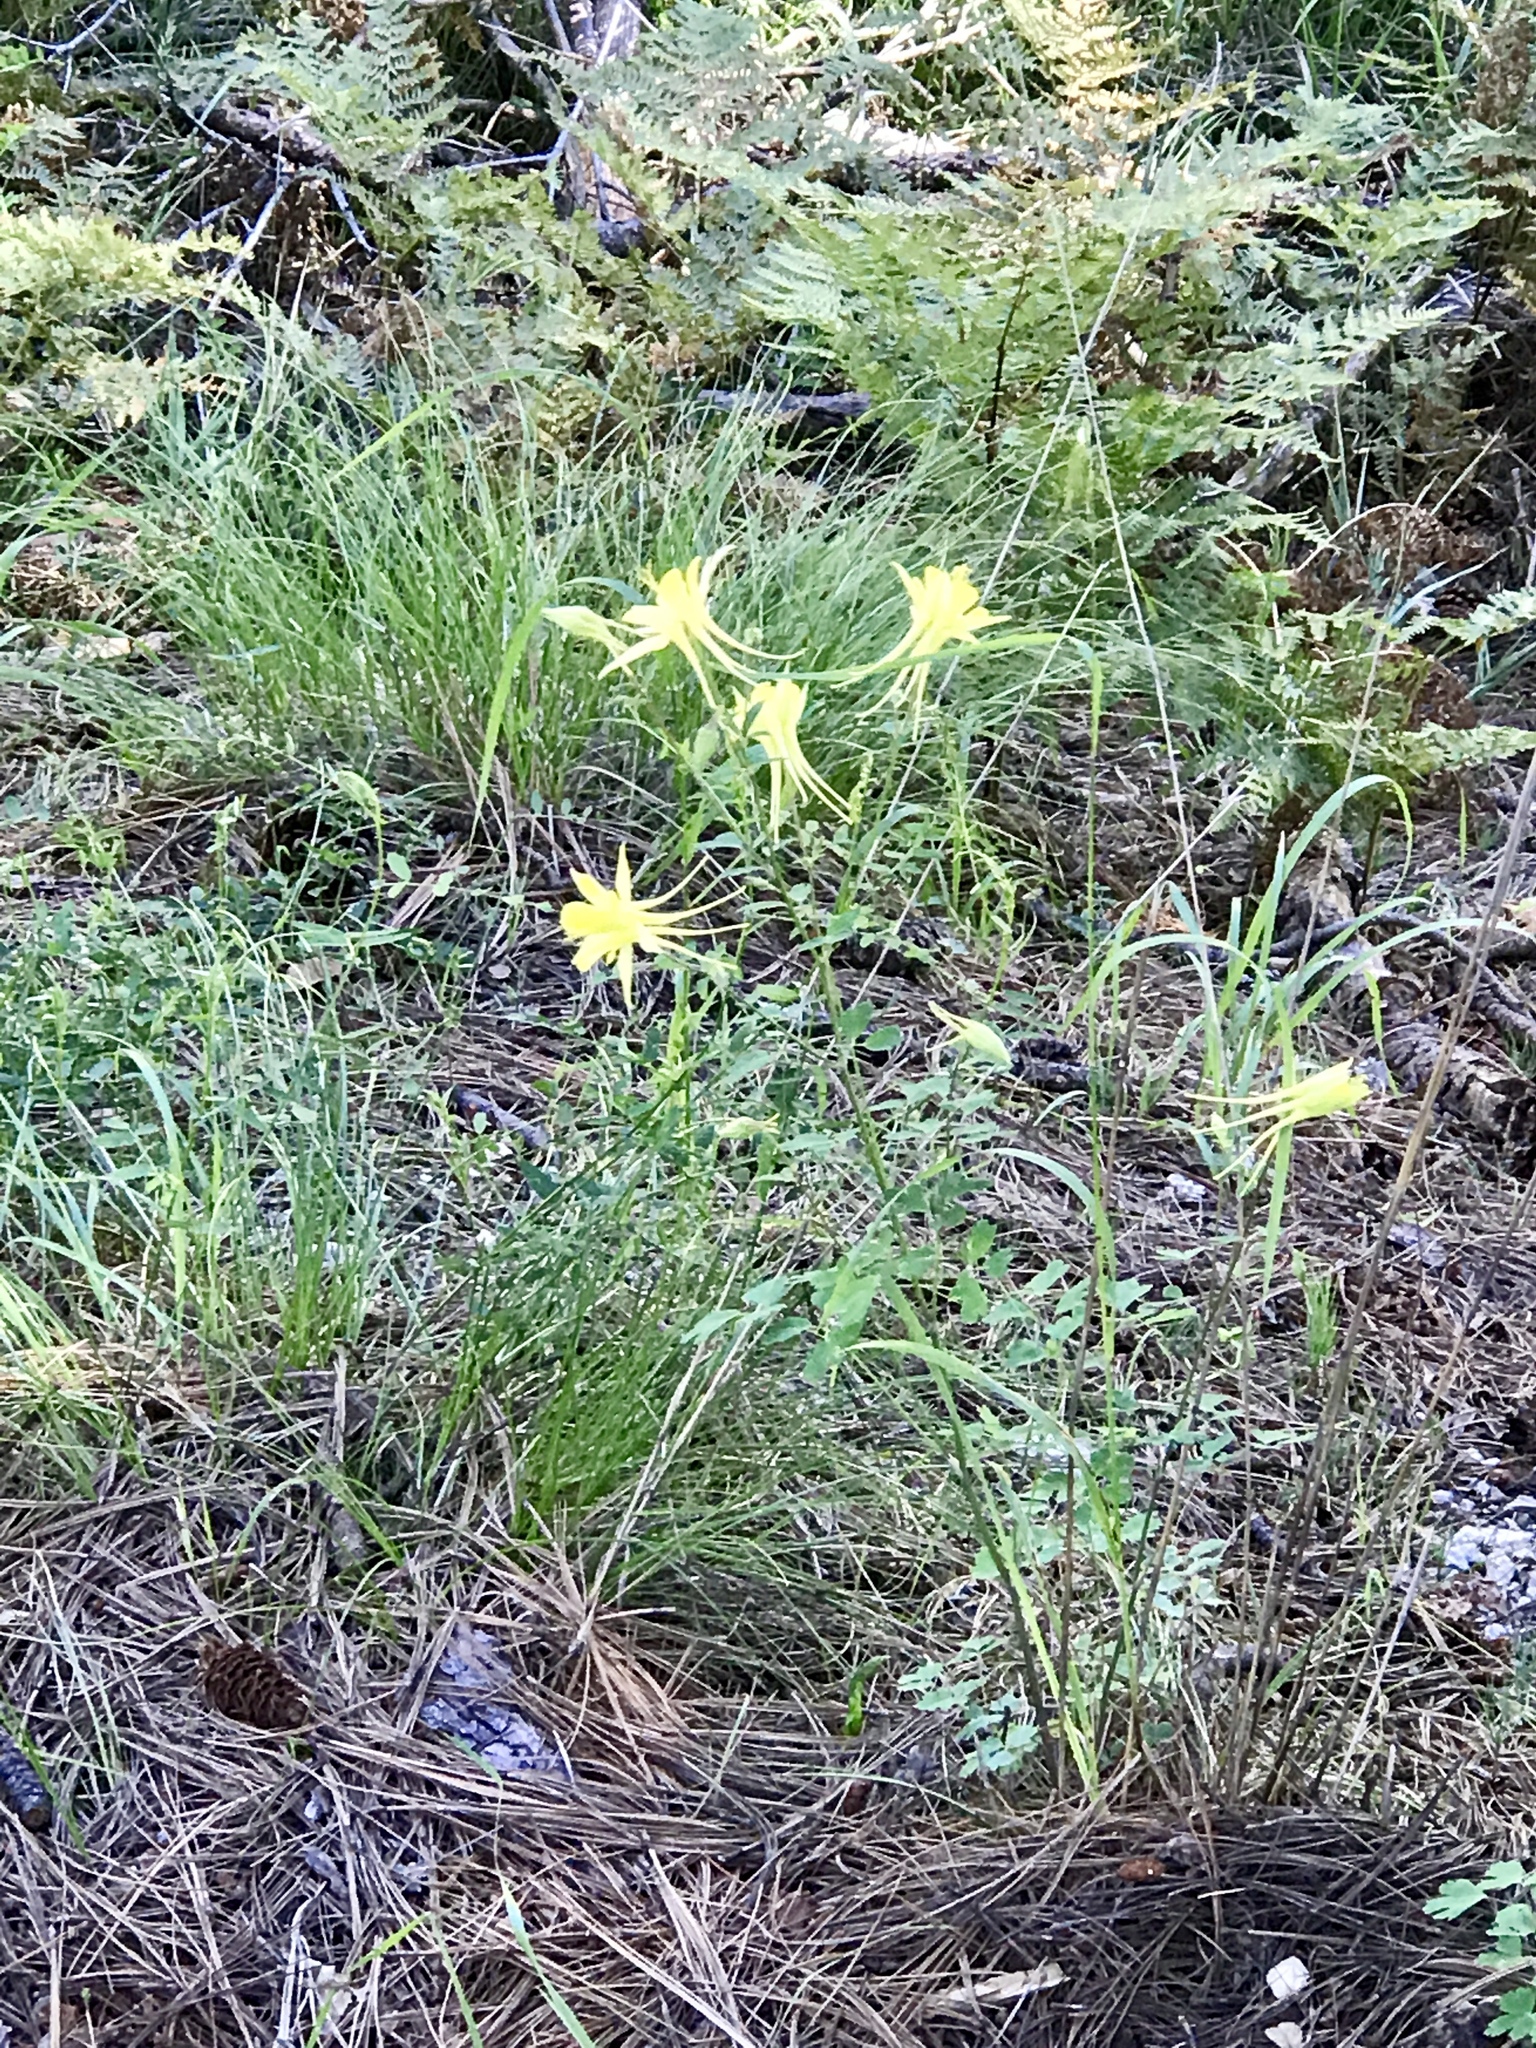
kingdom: Plantae
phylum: Tracheophyta
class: Magnoliopsida
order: Ranunculales
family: Ranunculaceae
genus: Aquilegia
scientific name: Aquilegia chrysantha
